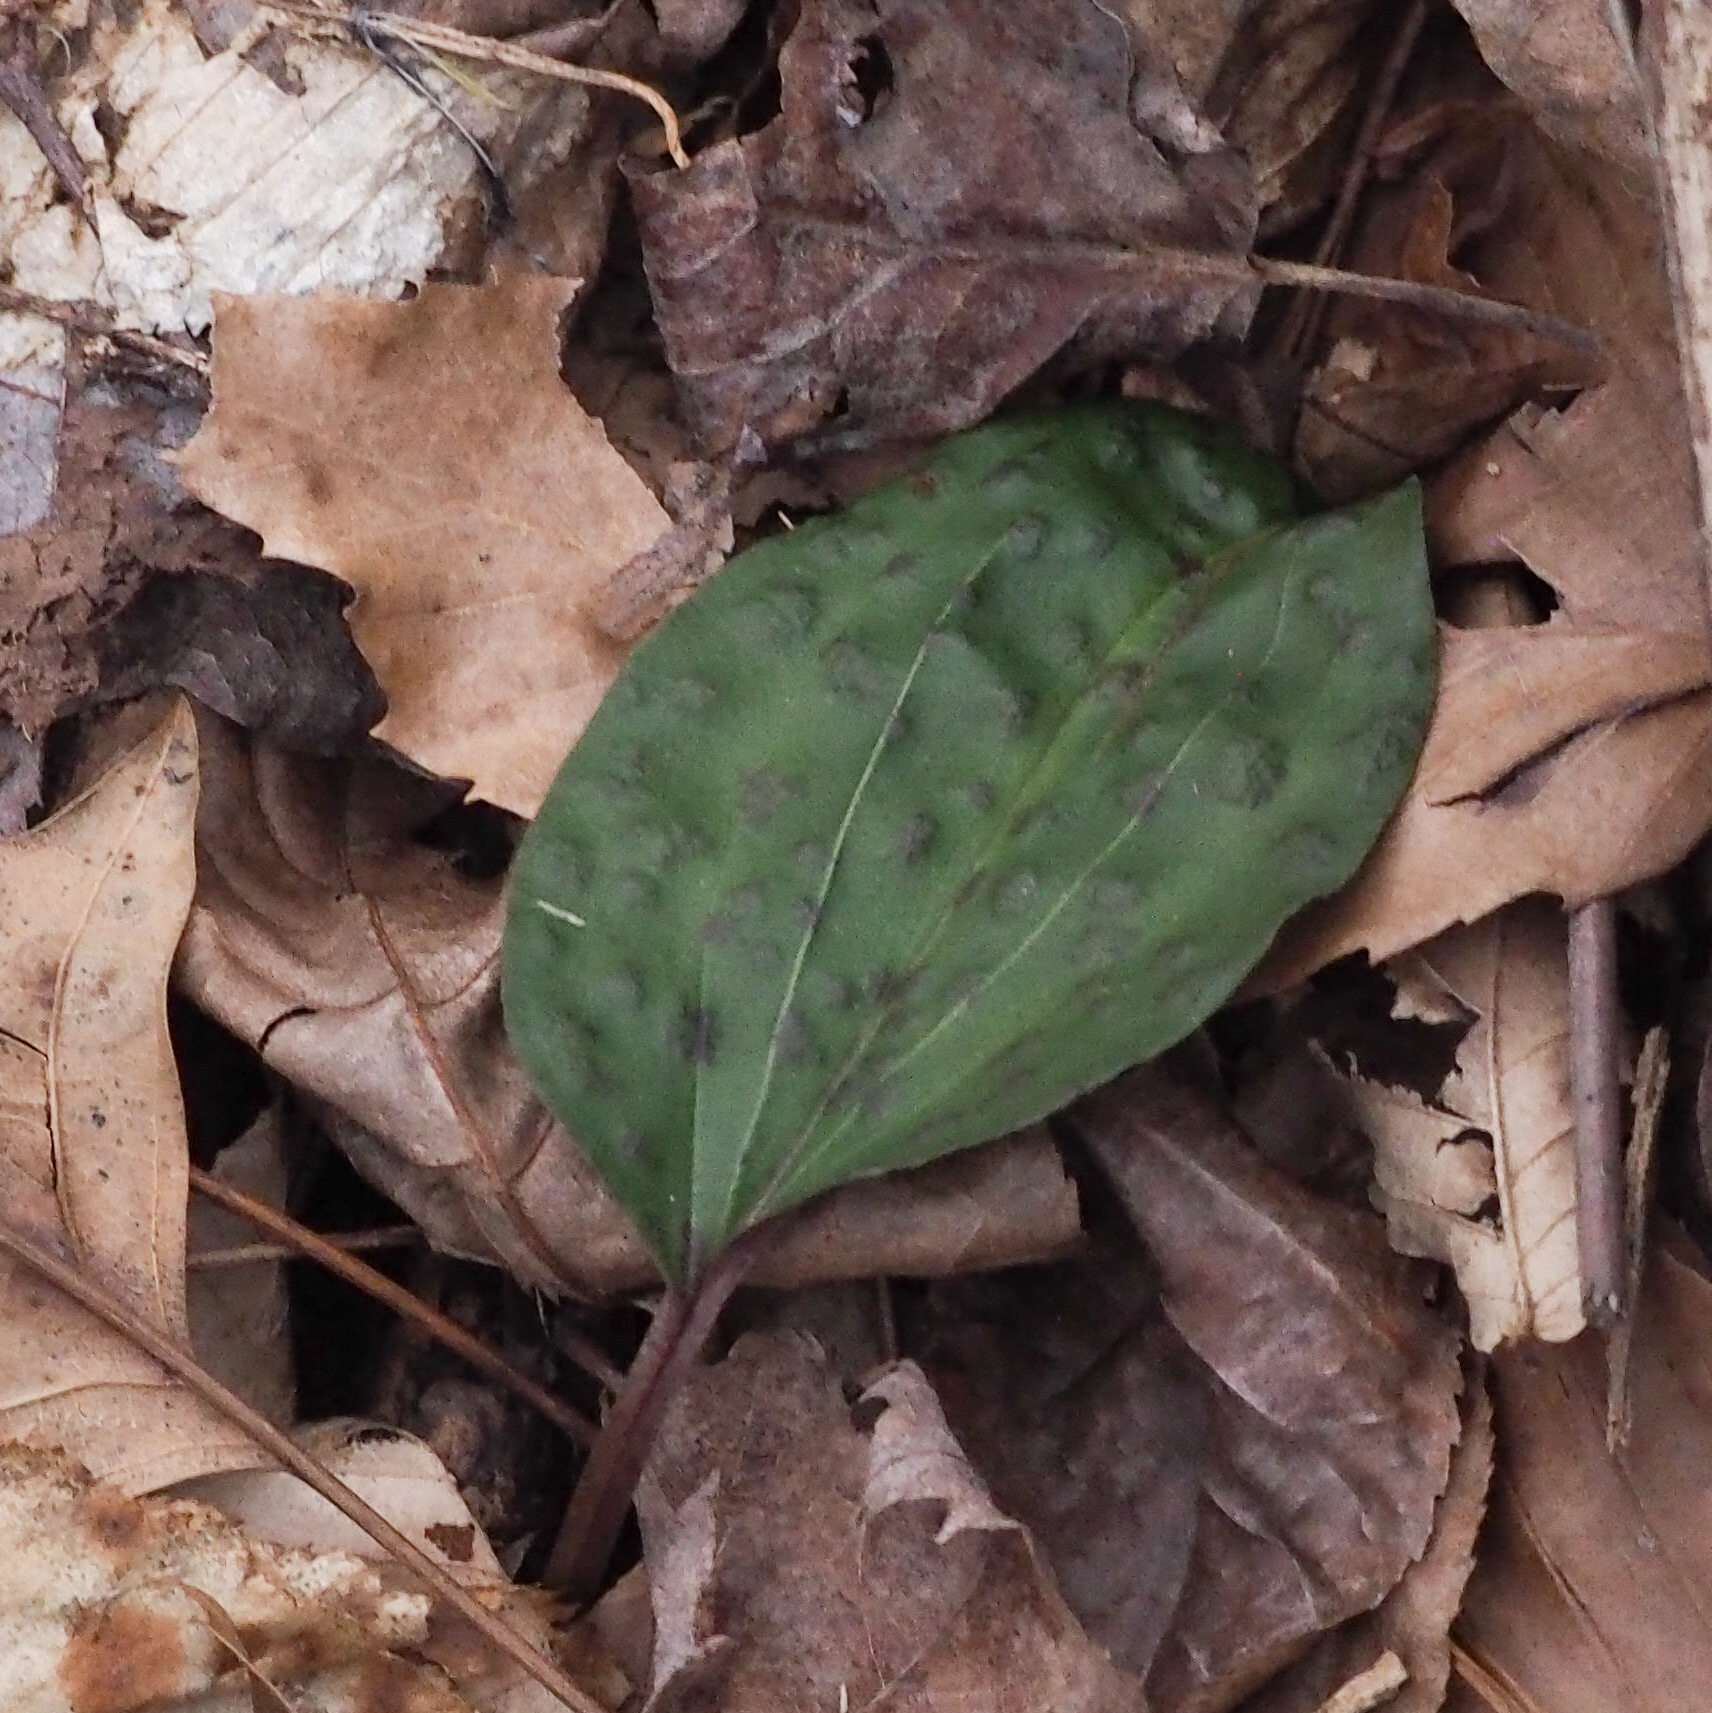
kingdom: Plantae
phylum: Tracheophyta
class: Liliopsida
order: Asparagales
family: Orchidaceae
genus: Tipularia
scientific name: Tipularia discolor
